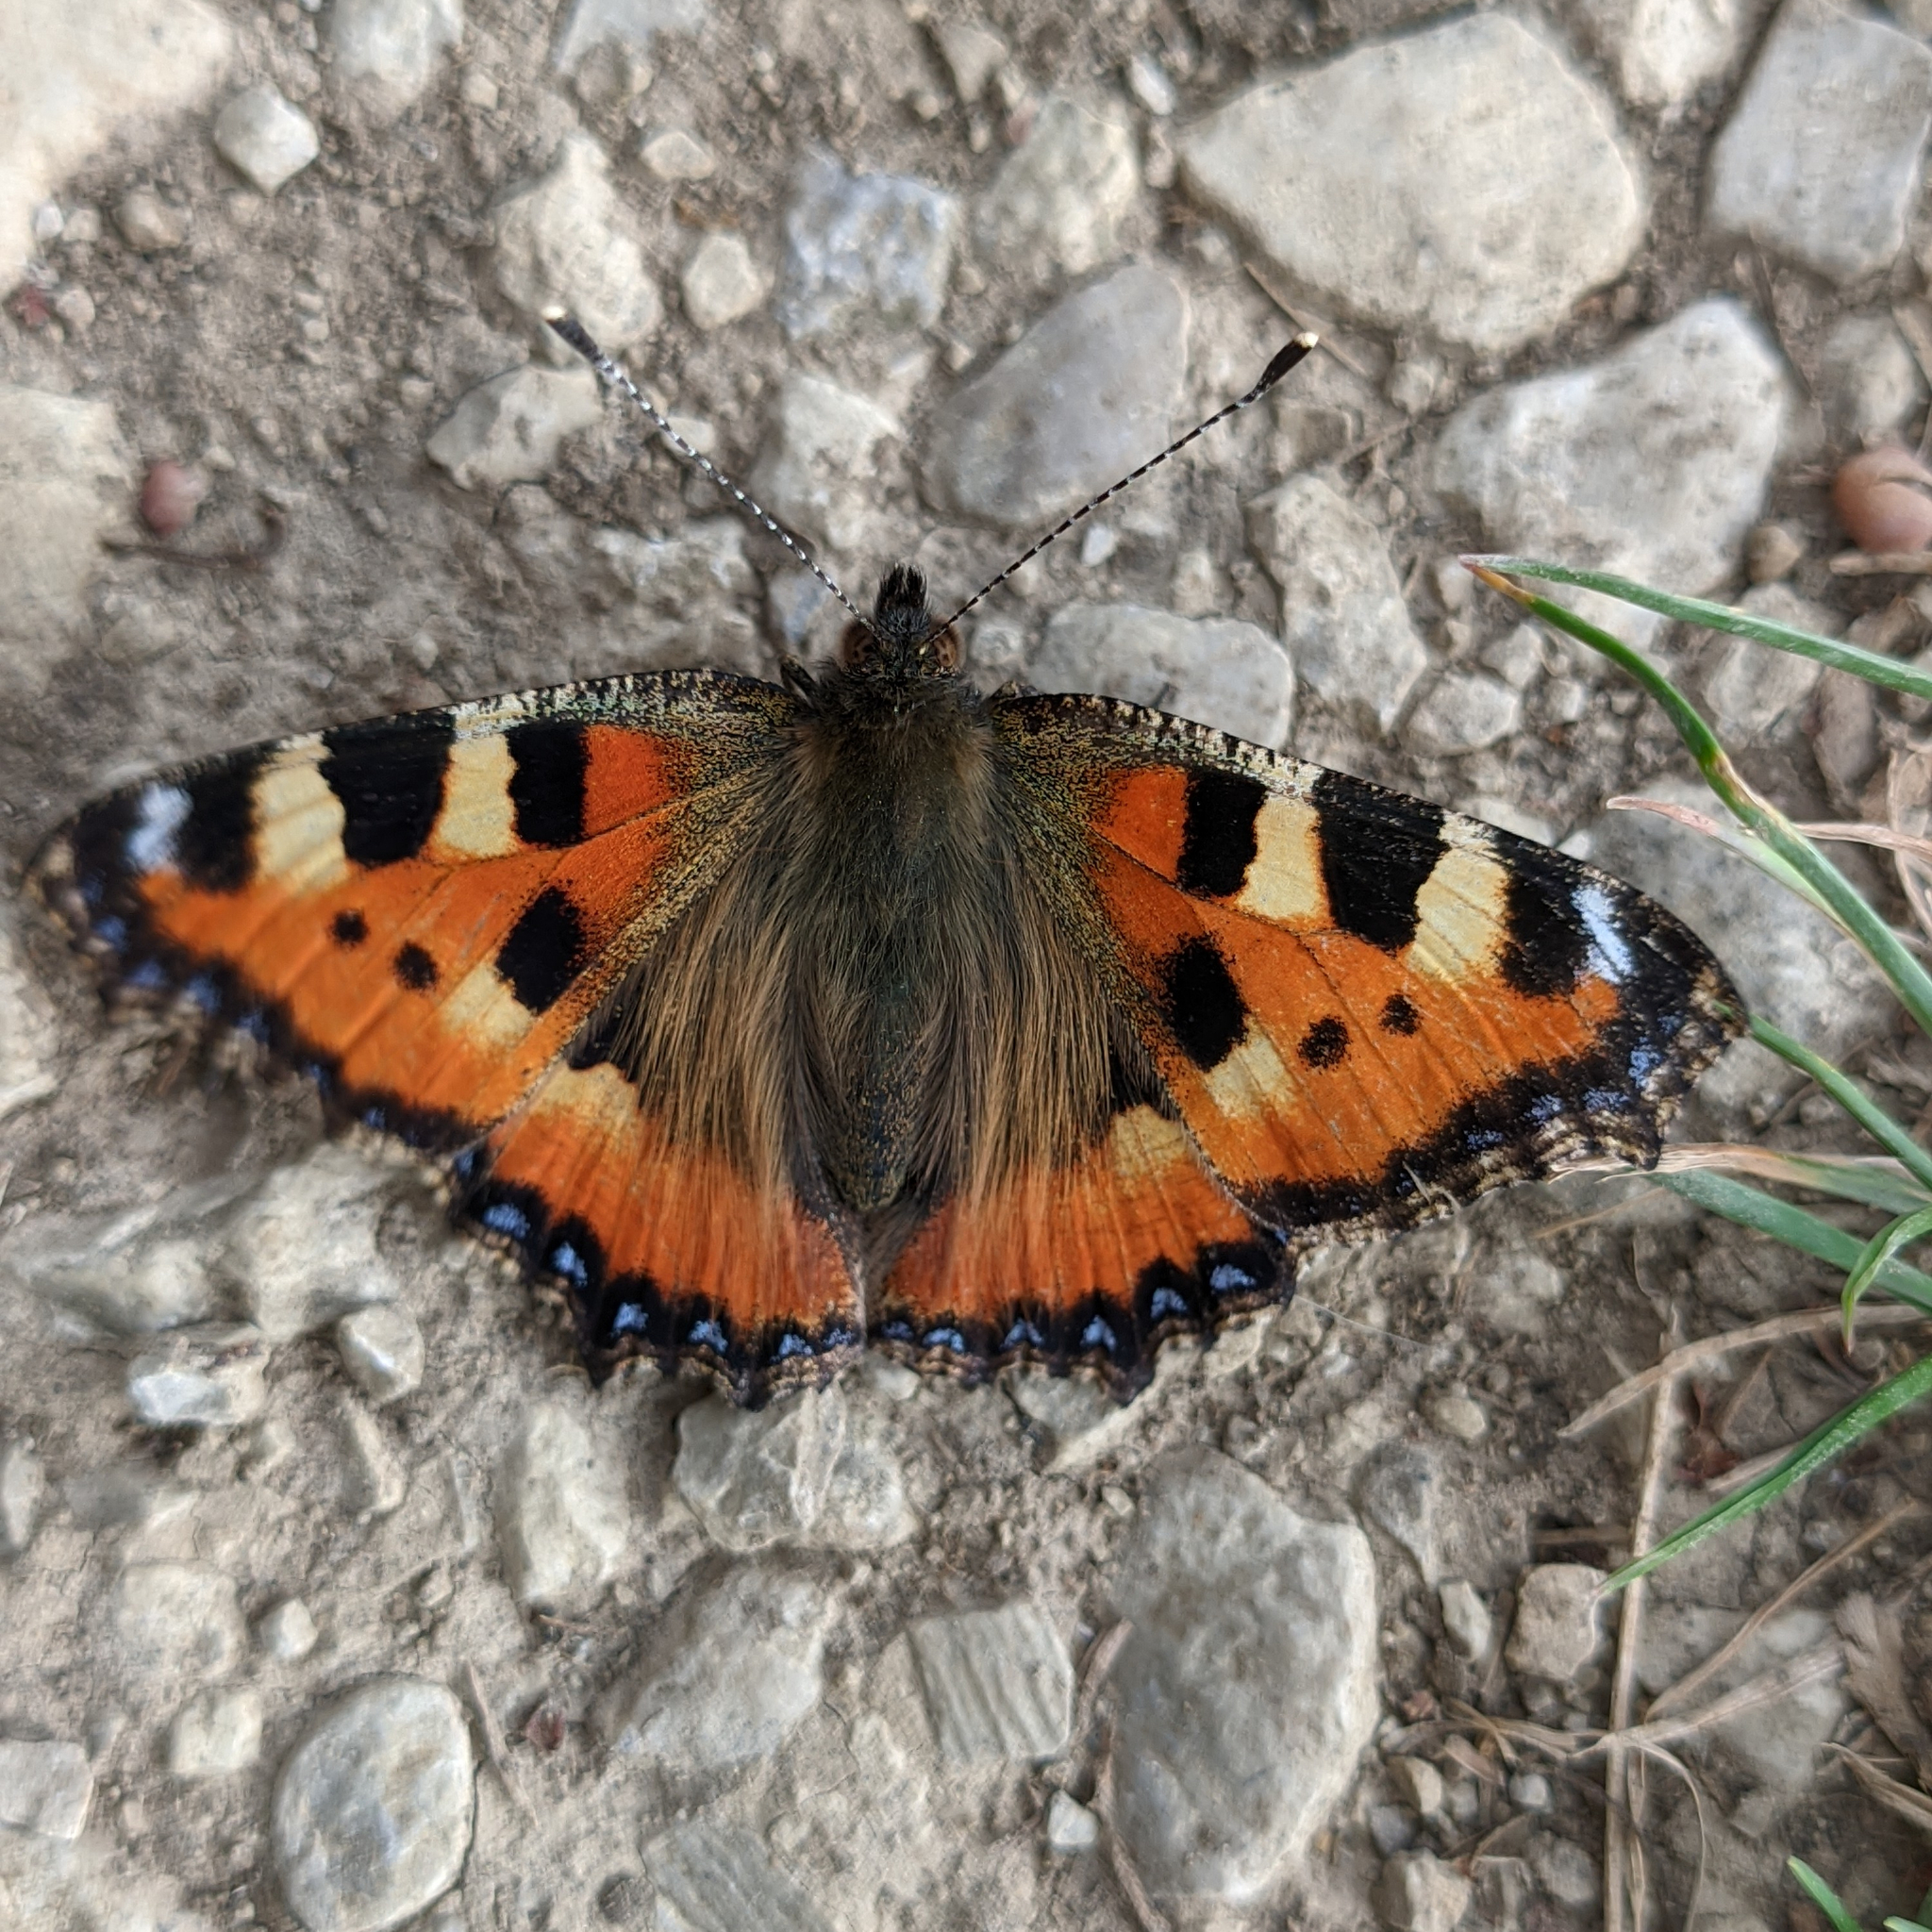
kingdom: Animalia
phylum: Arthropoda
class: Insecta
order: Lepidoptera
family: Nymphalidae
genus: Aglais
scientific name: Aglais urticae
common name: Small tortoiseshell
